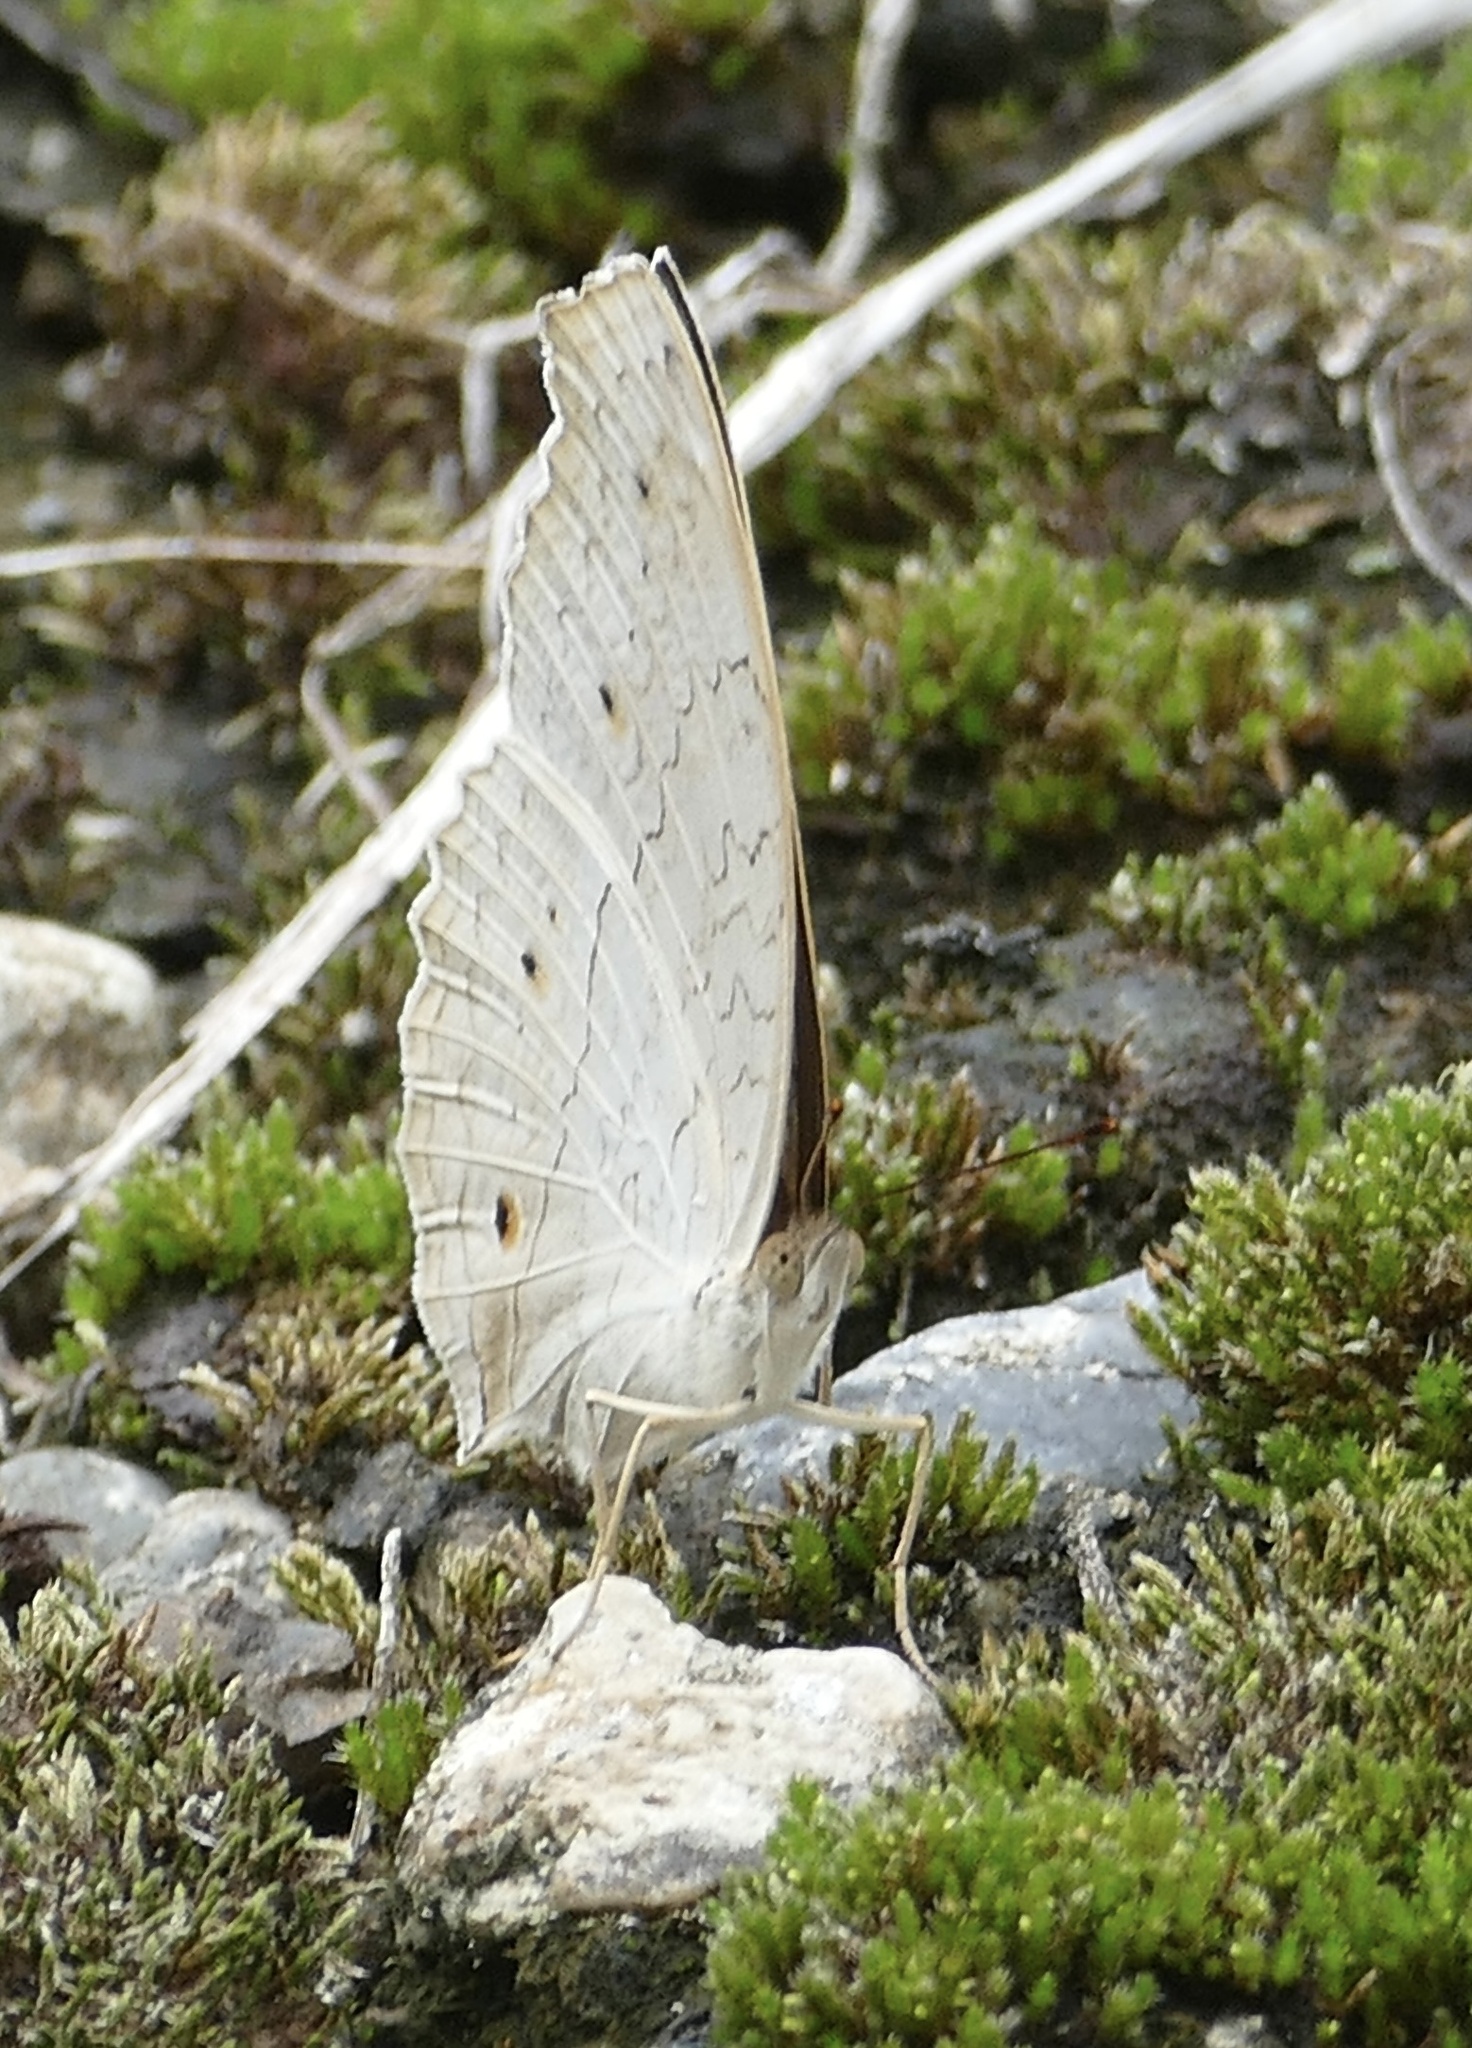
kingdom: Animalia
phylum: Arthropoda
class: Insecta
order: Lepidoptera
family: Nymphalidae
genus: Junonia
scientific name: Junonia atlites
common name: Grey pansy
